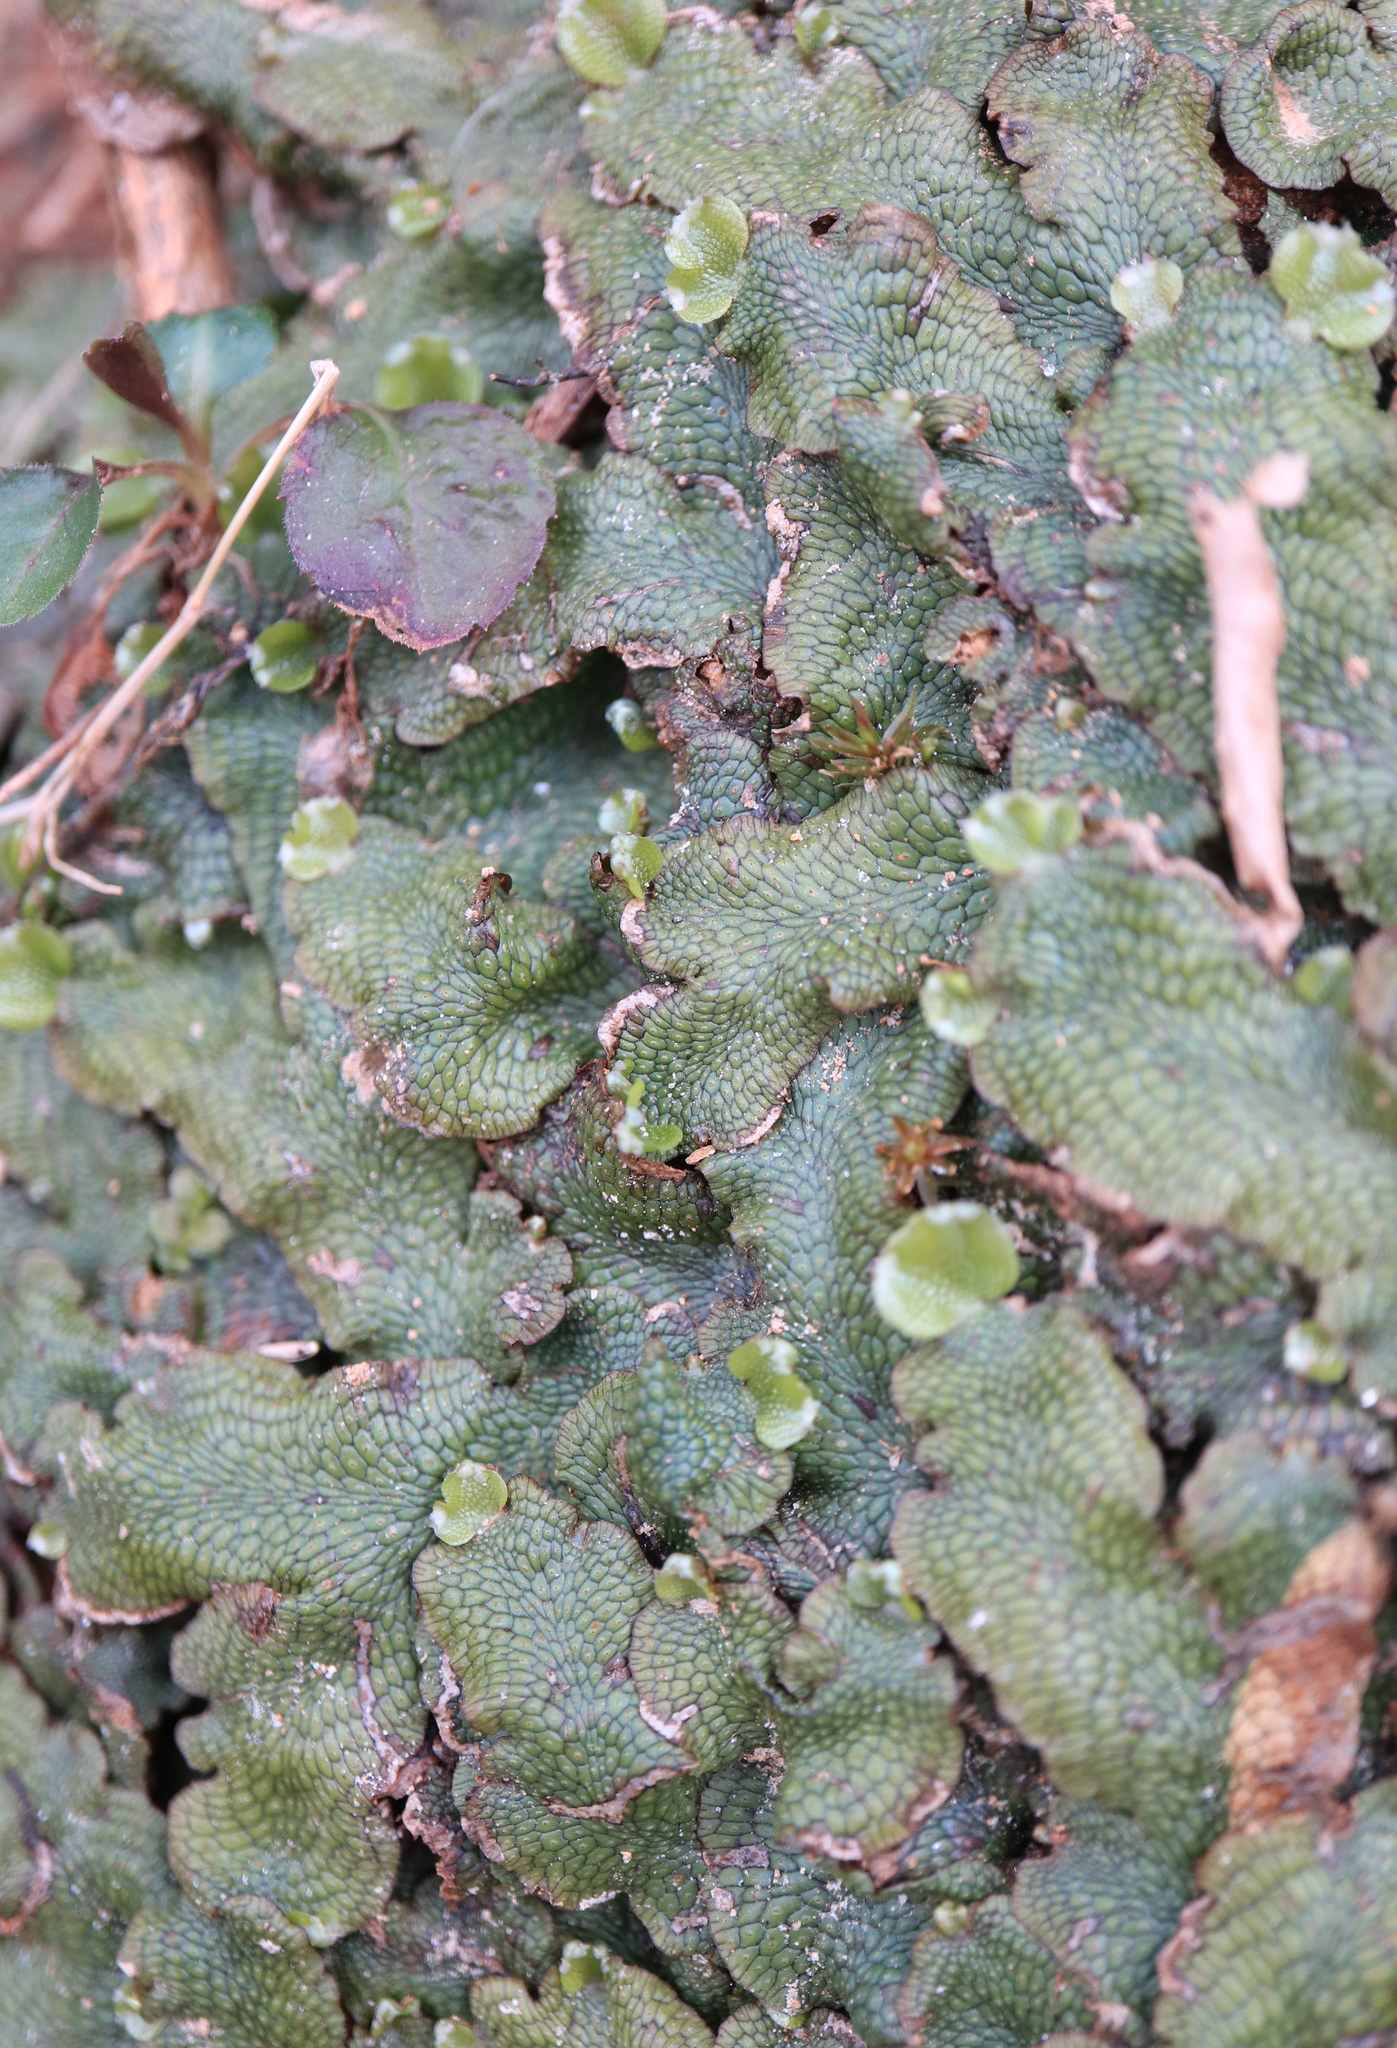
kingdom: Plantae
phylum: Marchantiophyta
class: Marchantiopsida
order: Marchantiales
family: Conocephalaceae
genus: Conocephalum
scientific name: Conocephalum salebrosum
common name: Cat-tongue liverwort
